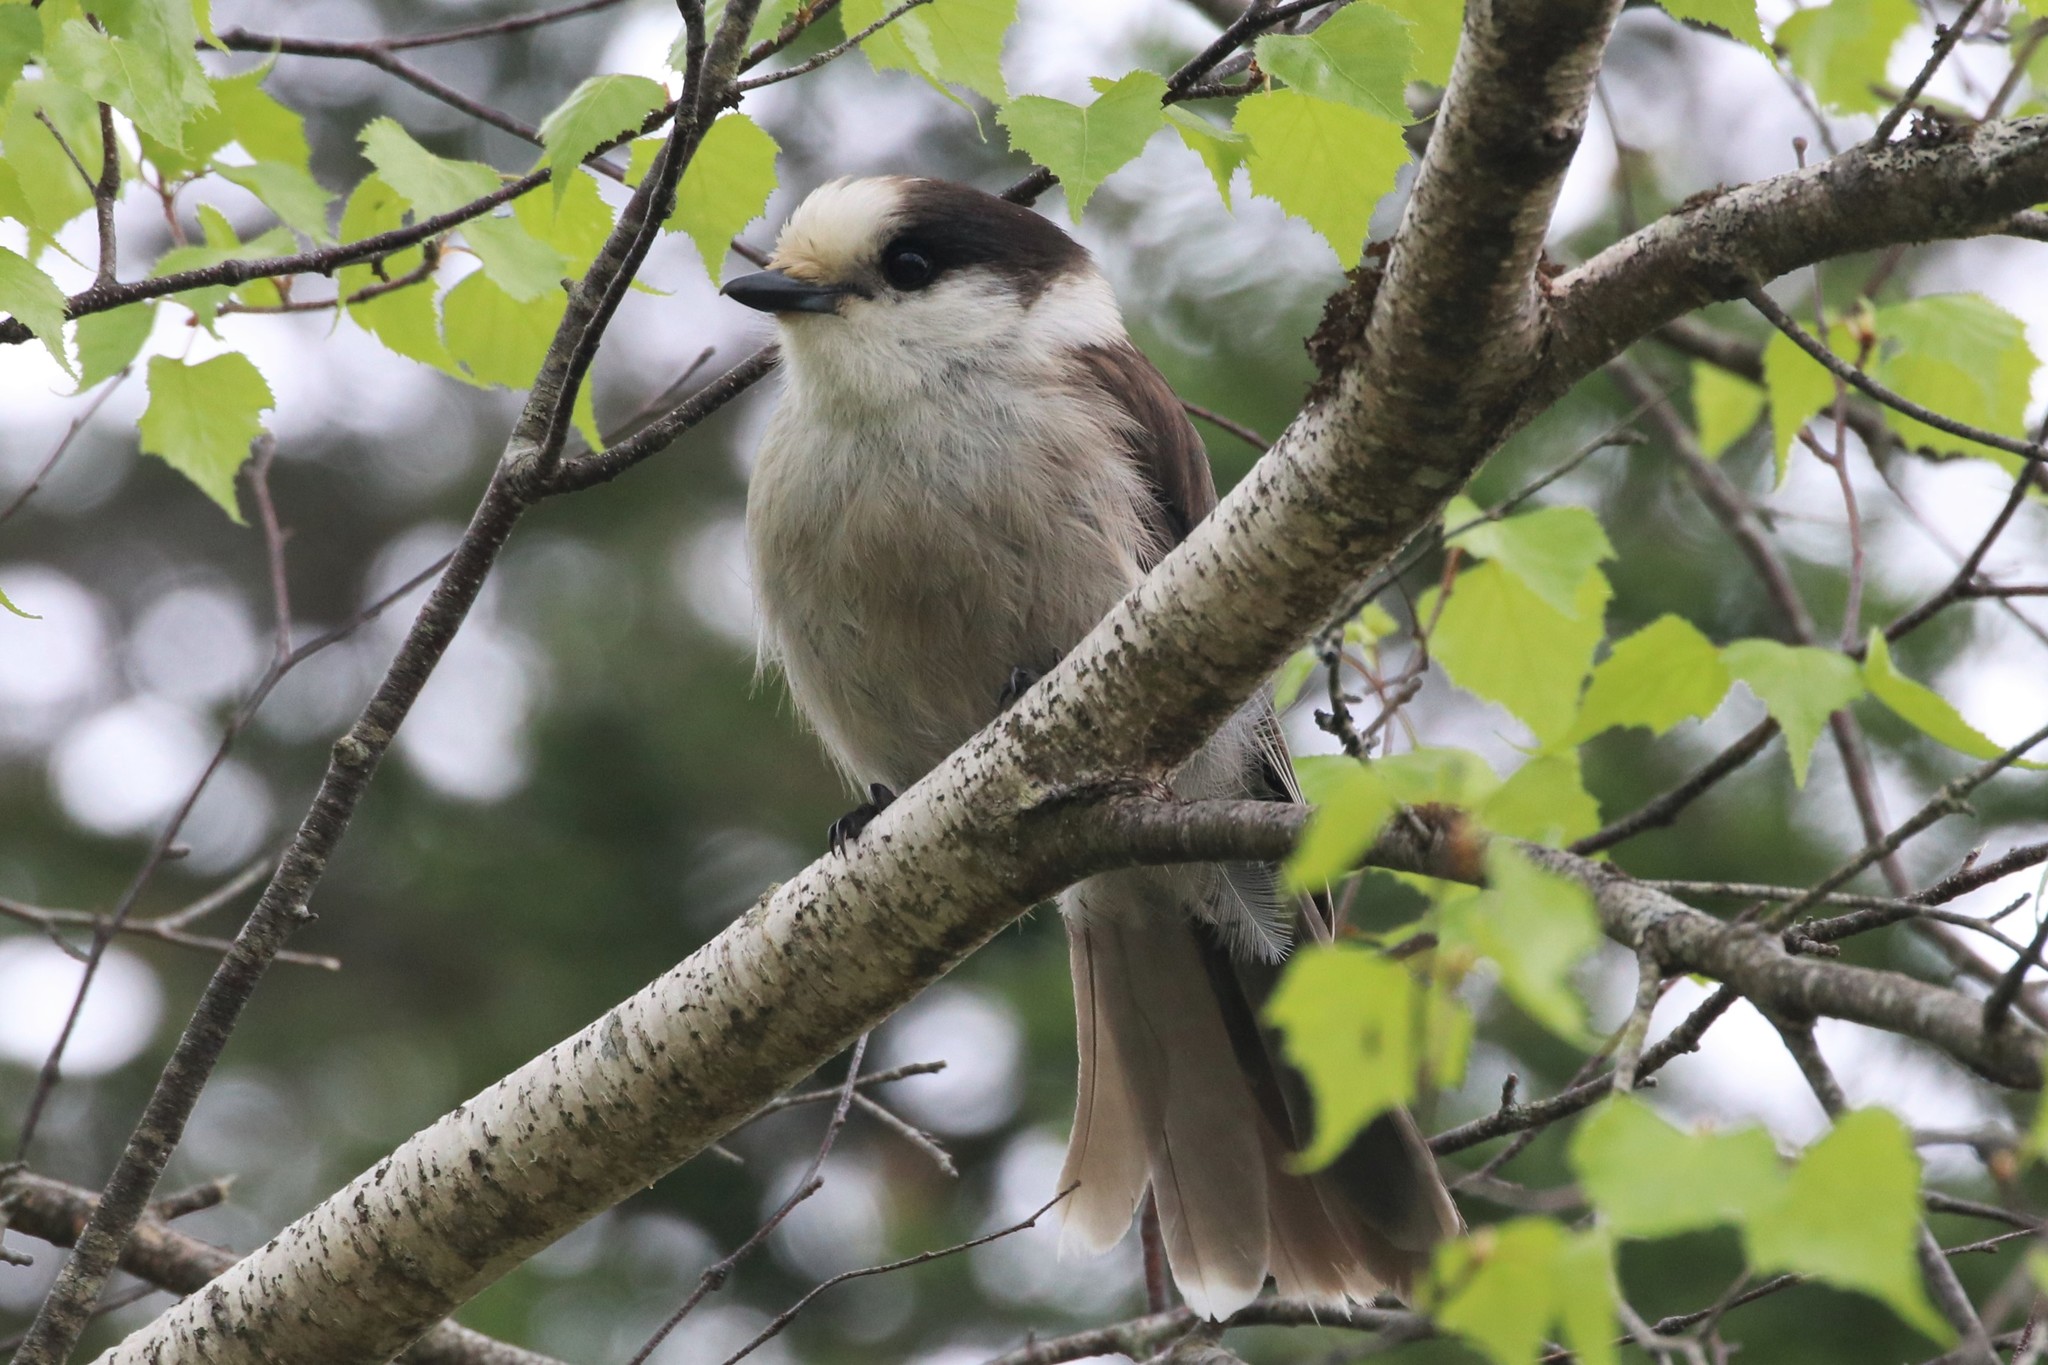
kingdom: Animalia
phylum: Chordata
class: Aves
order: Passeriformes
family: Corvidae
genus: Perisoreus
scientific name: Perisoreus canadensis
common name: Gray jay
